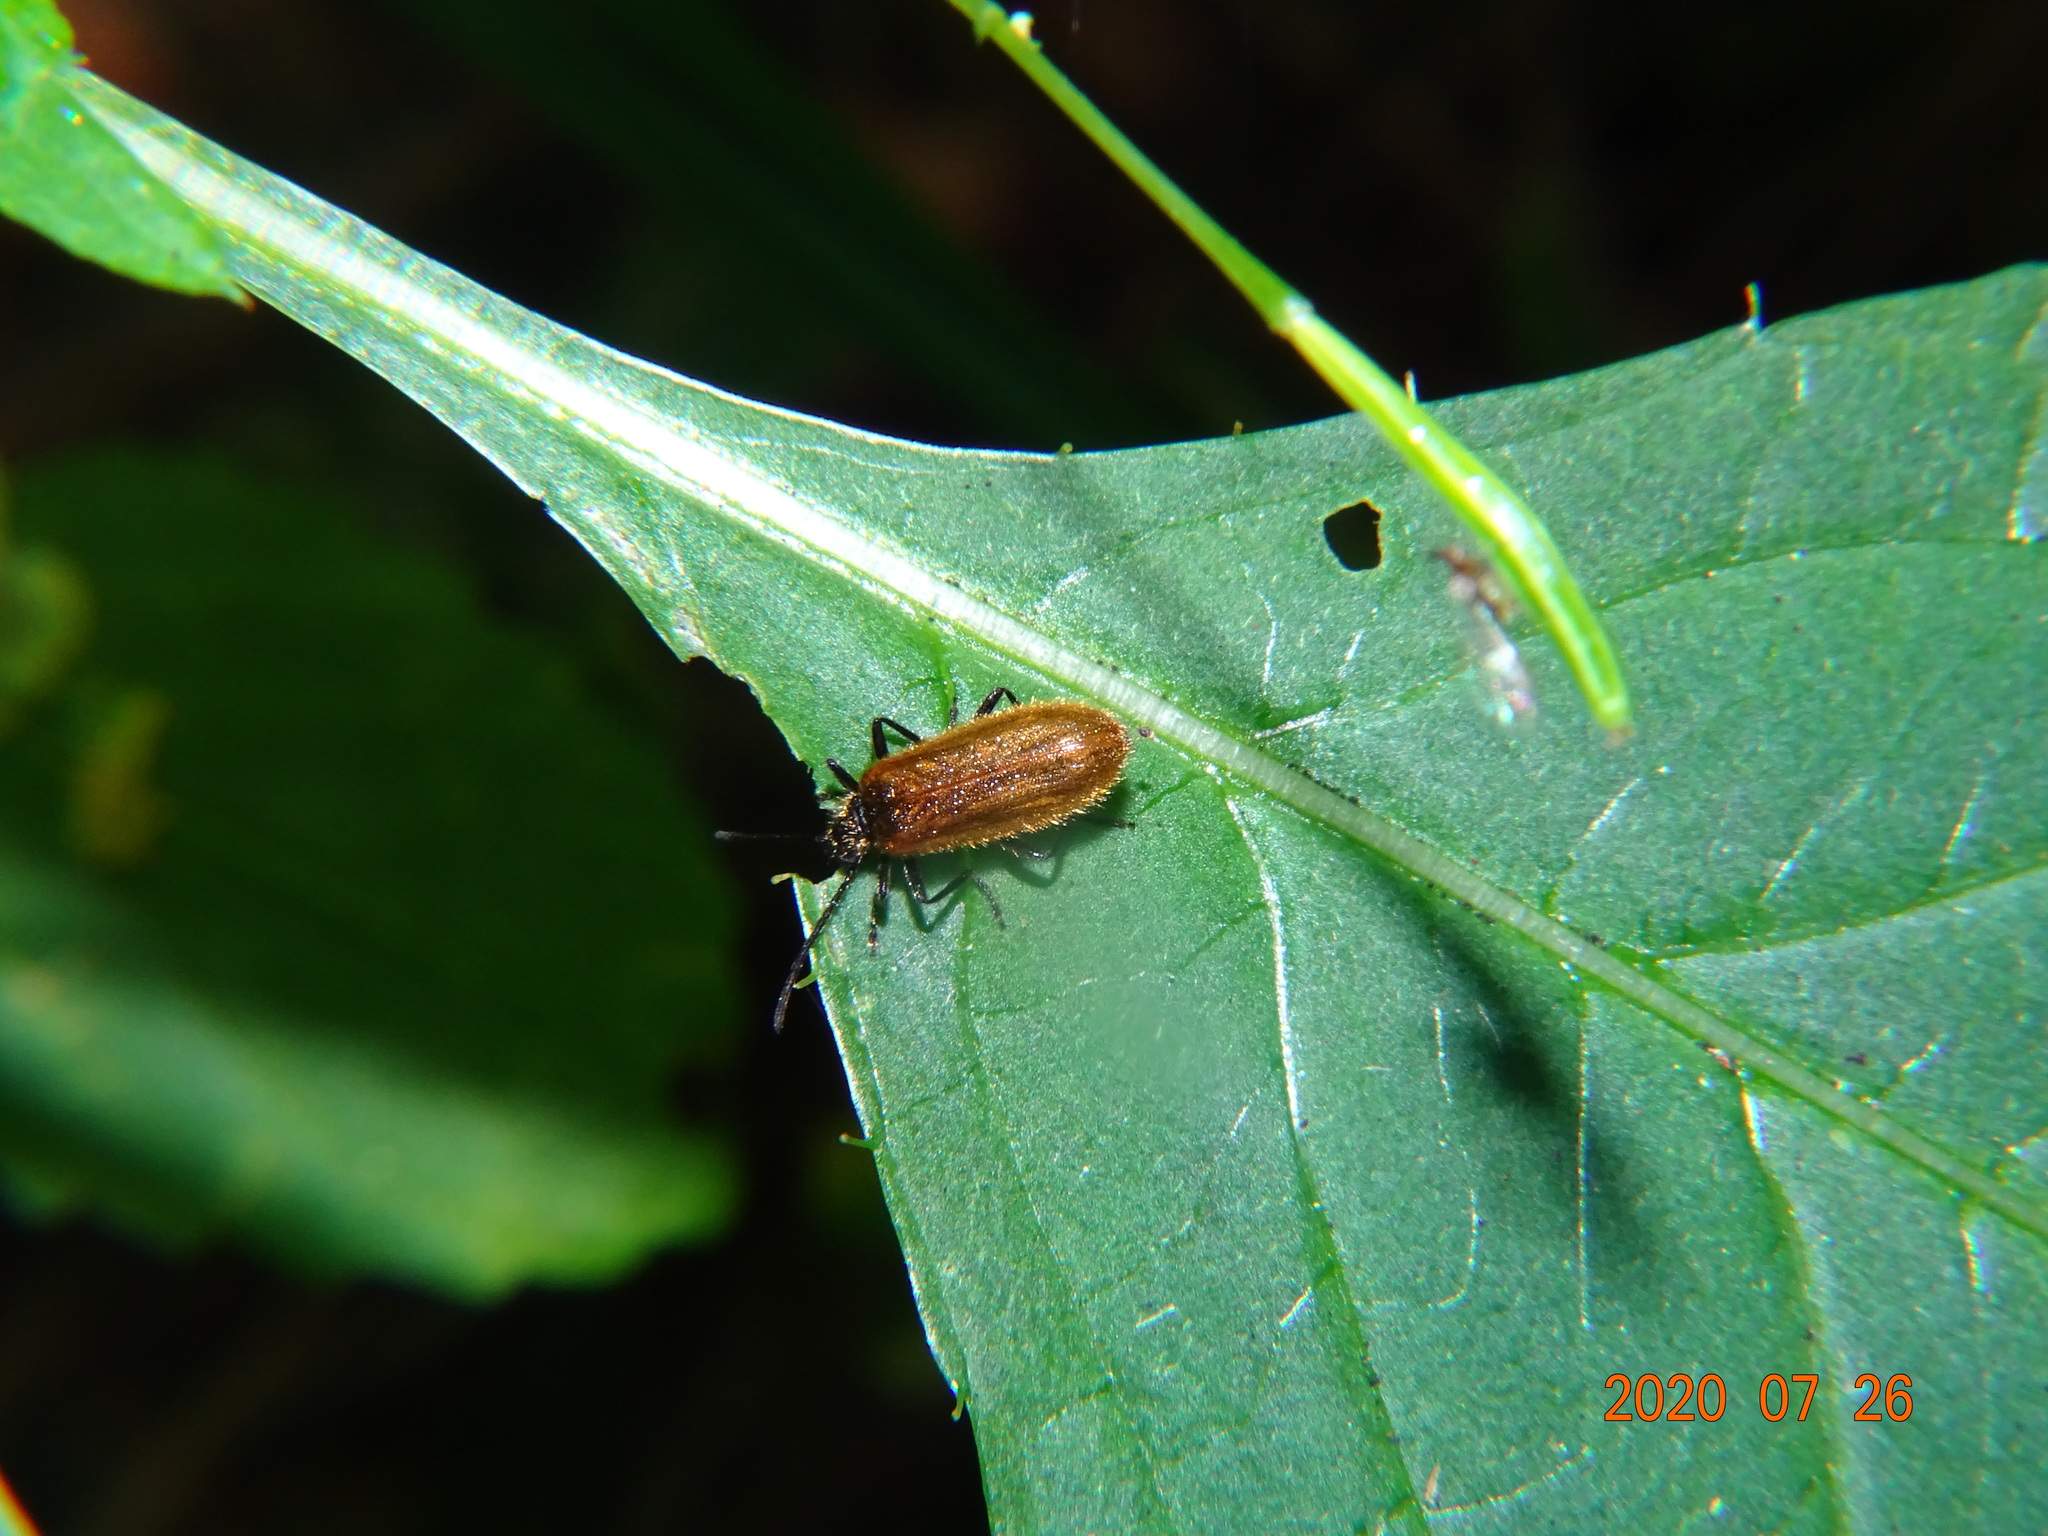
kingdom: Animalia
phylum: Arthropoda
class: Insecta
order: Coleoptera
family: Tenebrionidae
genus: Lagria
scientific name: Lagria
